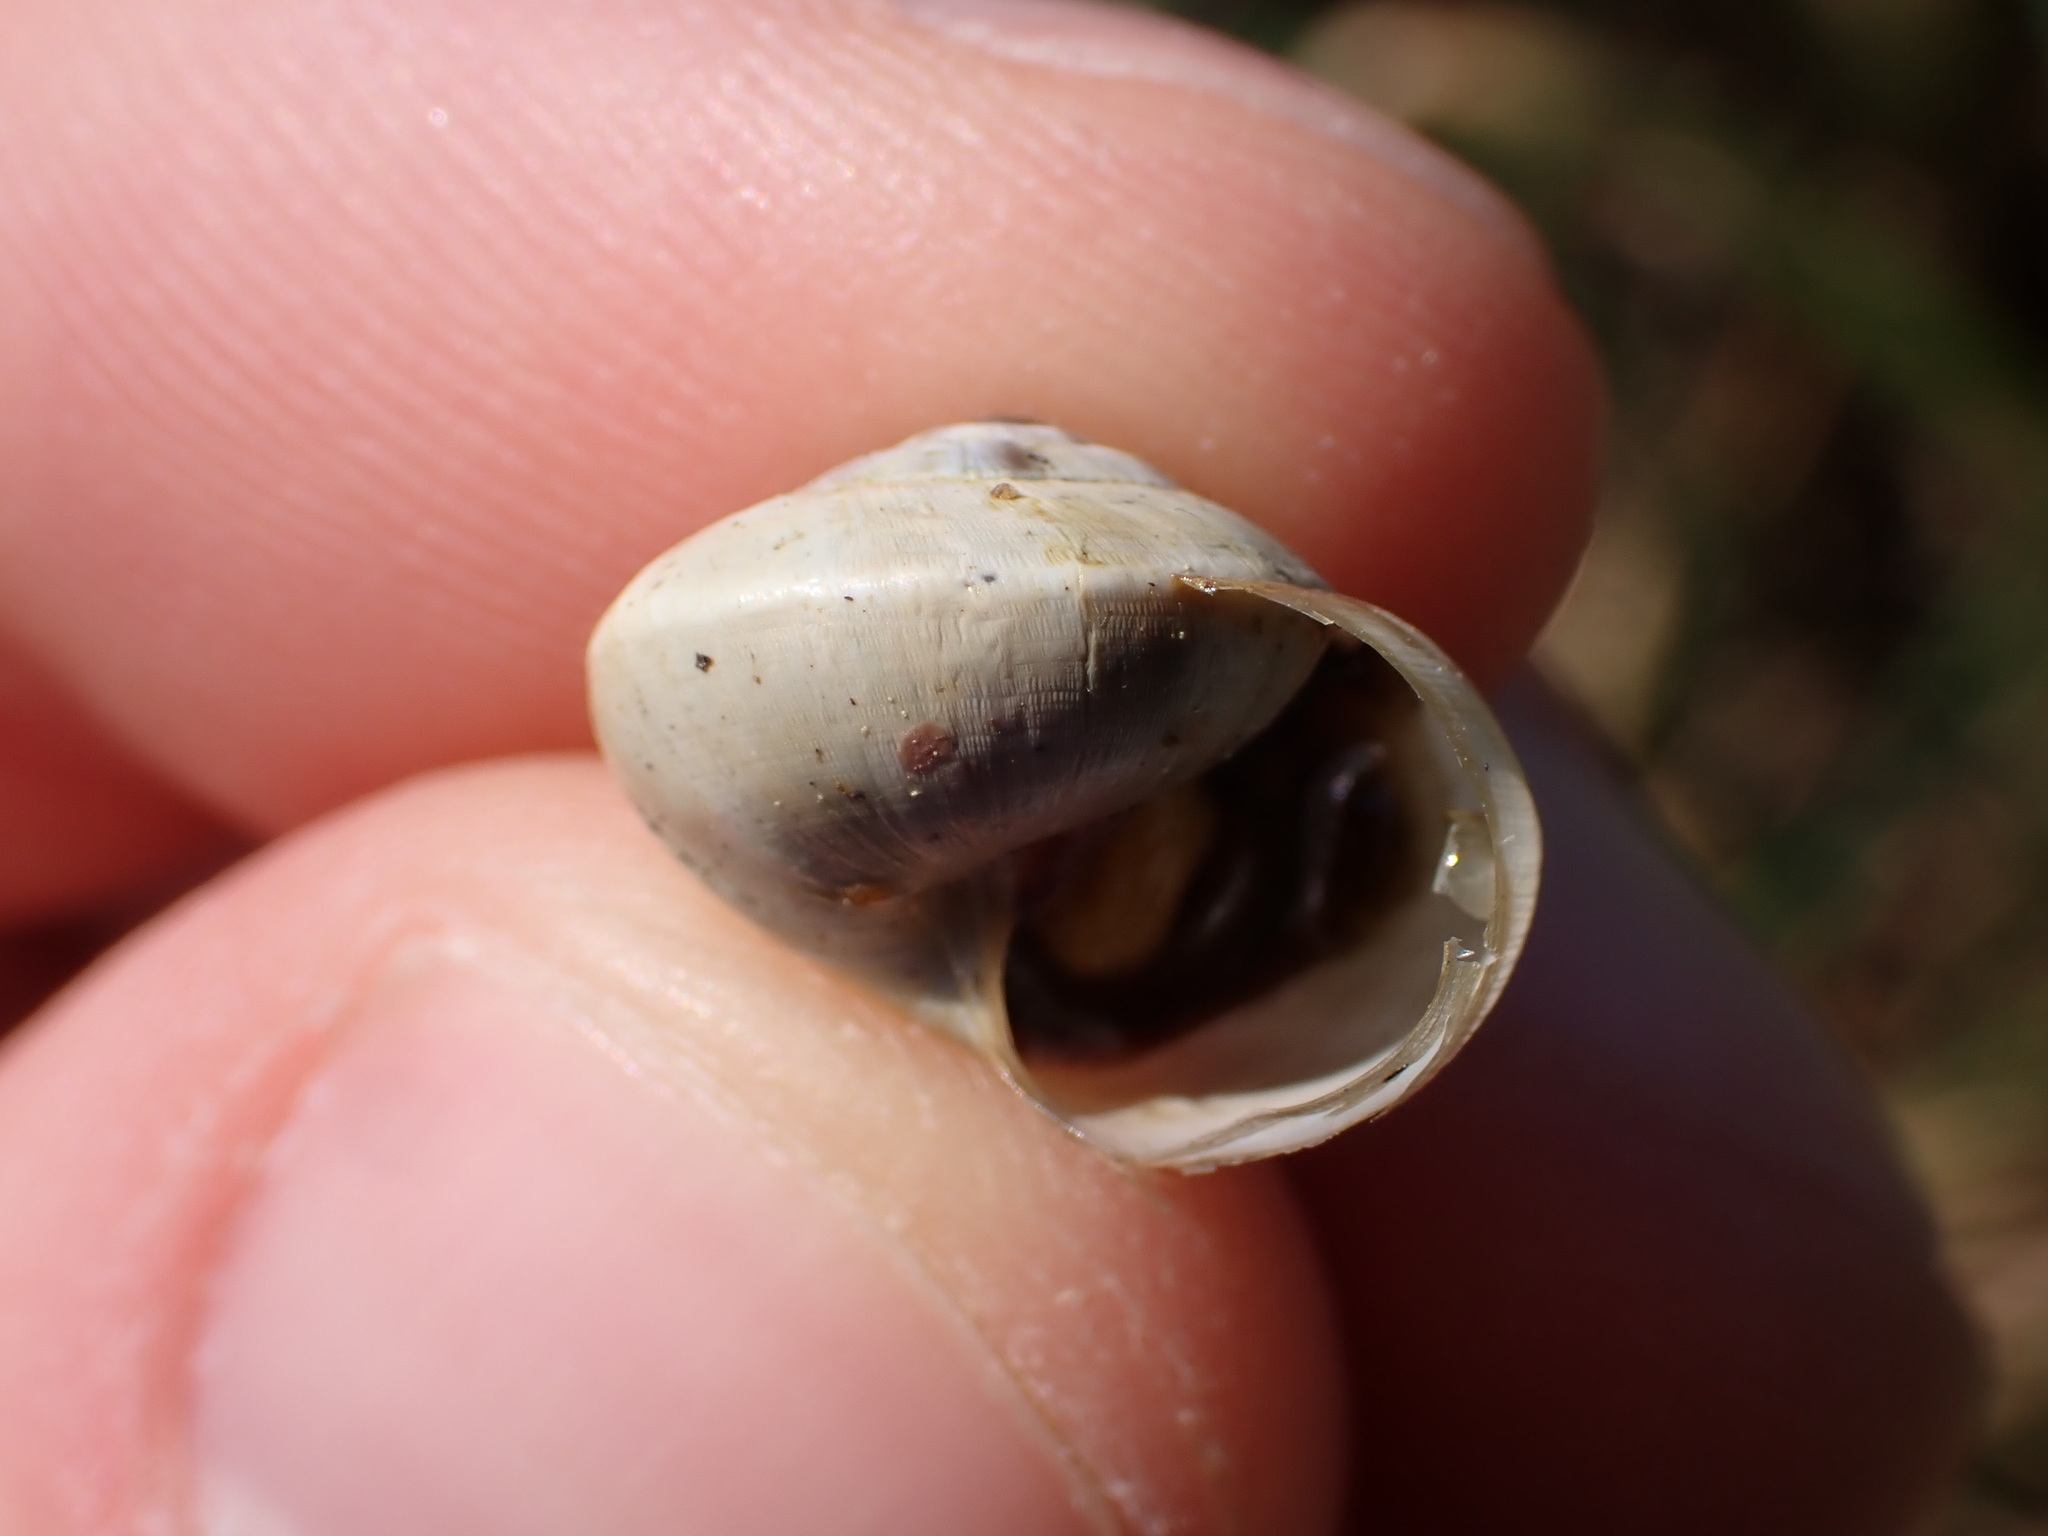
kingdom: Animalia
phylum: Mollusca
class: Gastropoda
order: Stylommatophora
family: Helicidae
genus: Theba
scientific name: Theba pisana
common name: White snail
